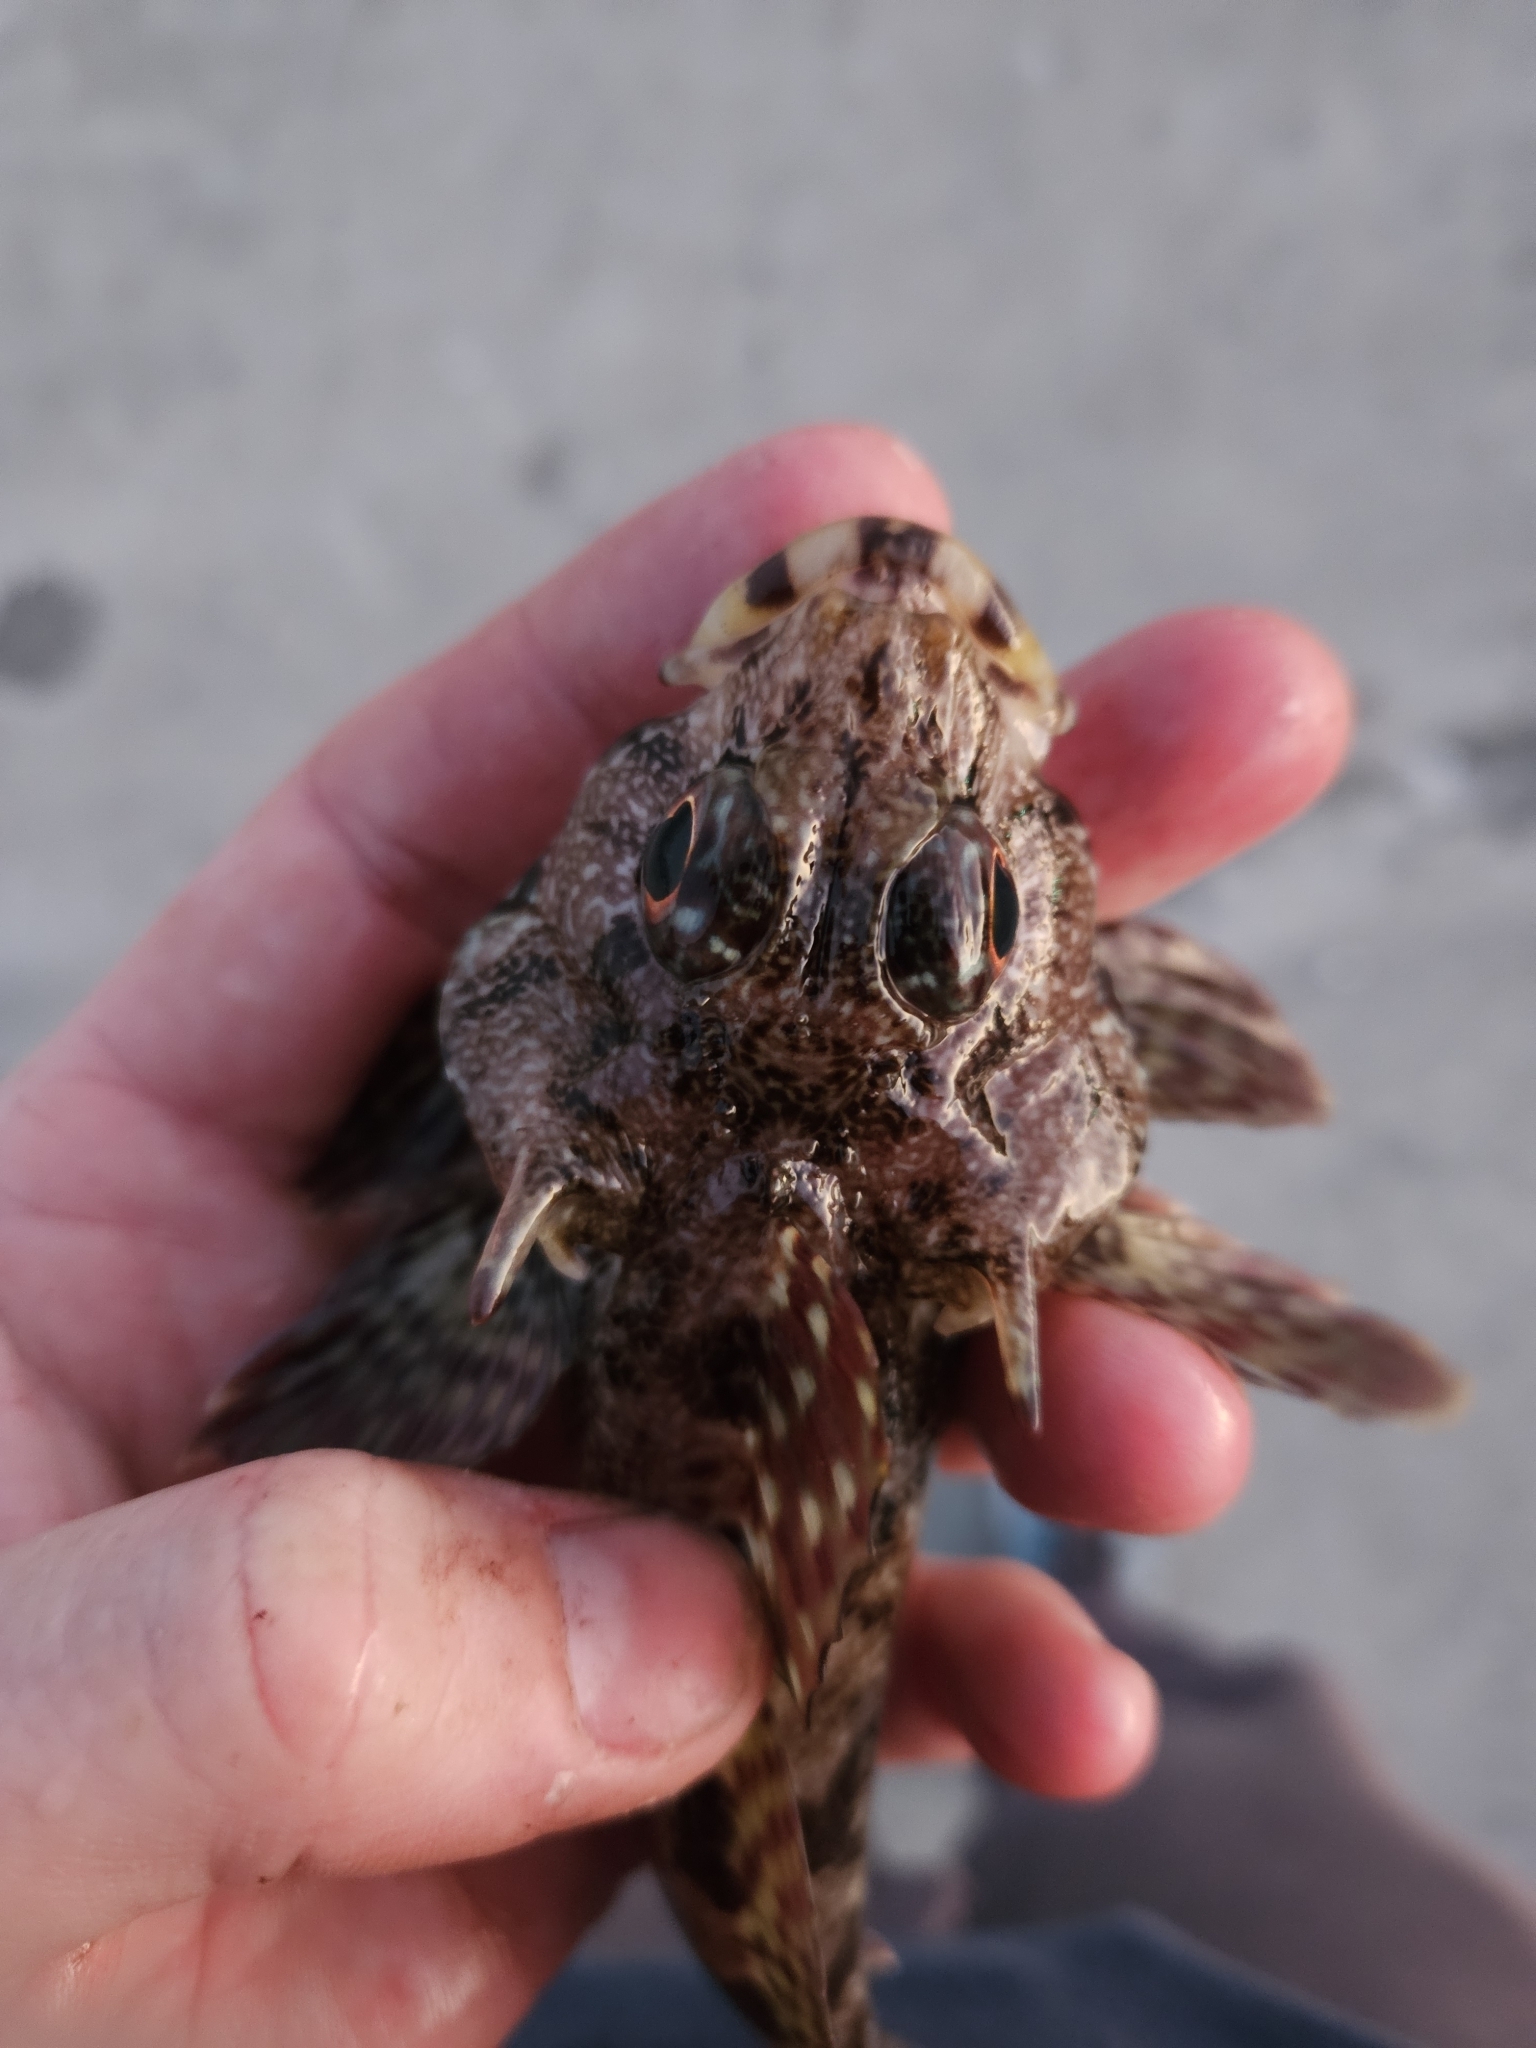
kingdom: Animalia
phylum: Chordata
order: Perciformes
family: Bovichtidae
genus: Bovichtus
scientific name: Bovichtus variegatus
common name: Thornfish
